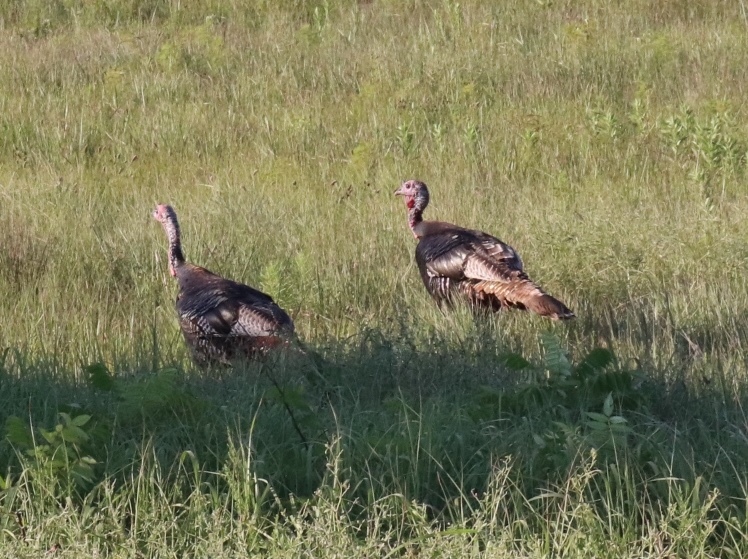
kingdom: Animalia
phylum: Chordata
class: Aves
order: Galliformes
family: Phasianidae
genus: Meleagris
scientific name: Meleagris gallopavo
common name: Wild turkey
